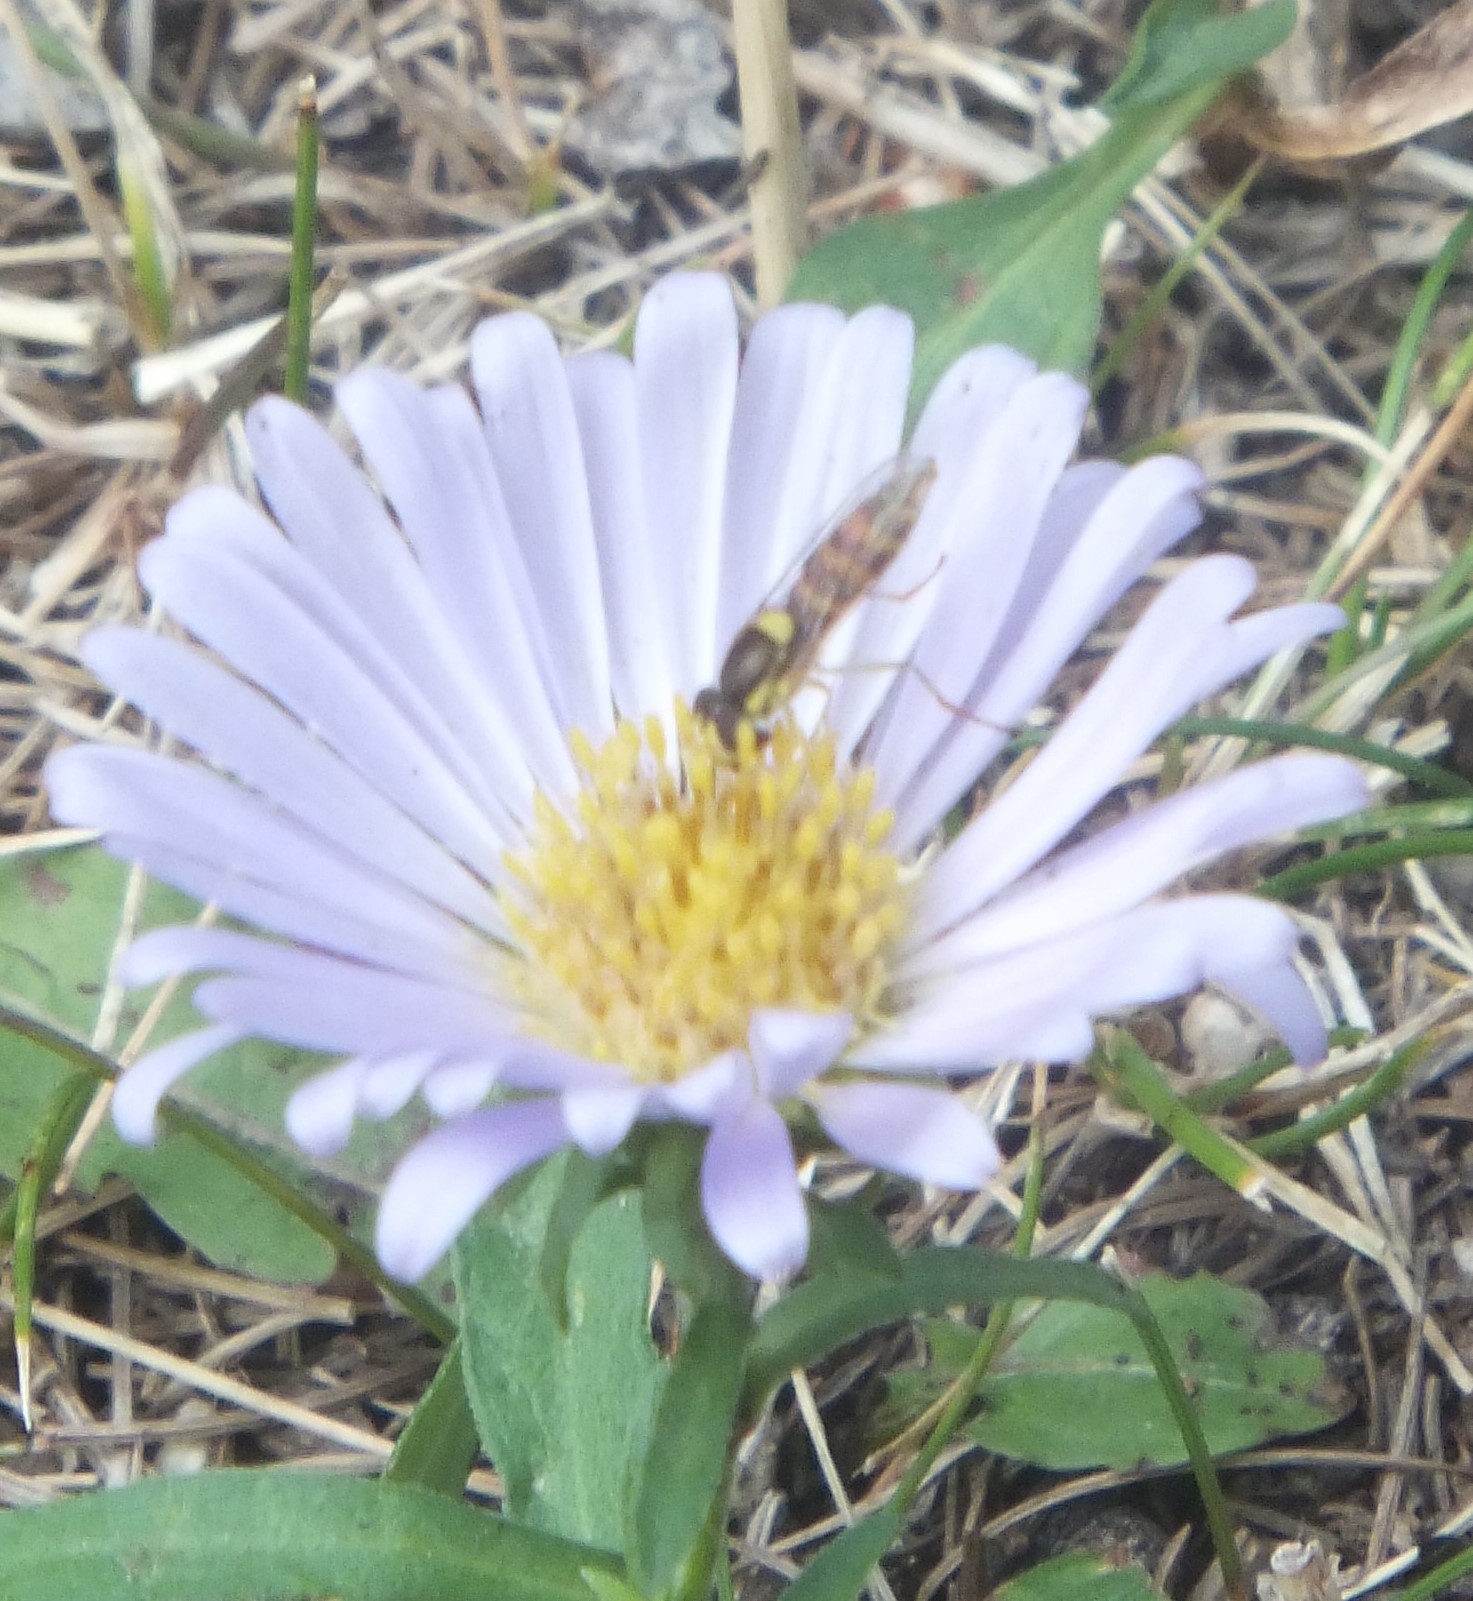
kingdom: Animalia
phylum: Arthropoda
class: Insecta
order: Diptera
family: Syrphidae
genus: Sphaerophoria
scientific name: Sphaerophoria
